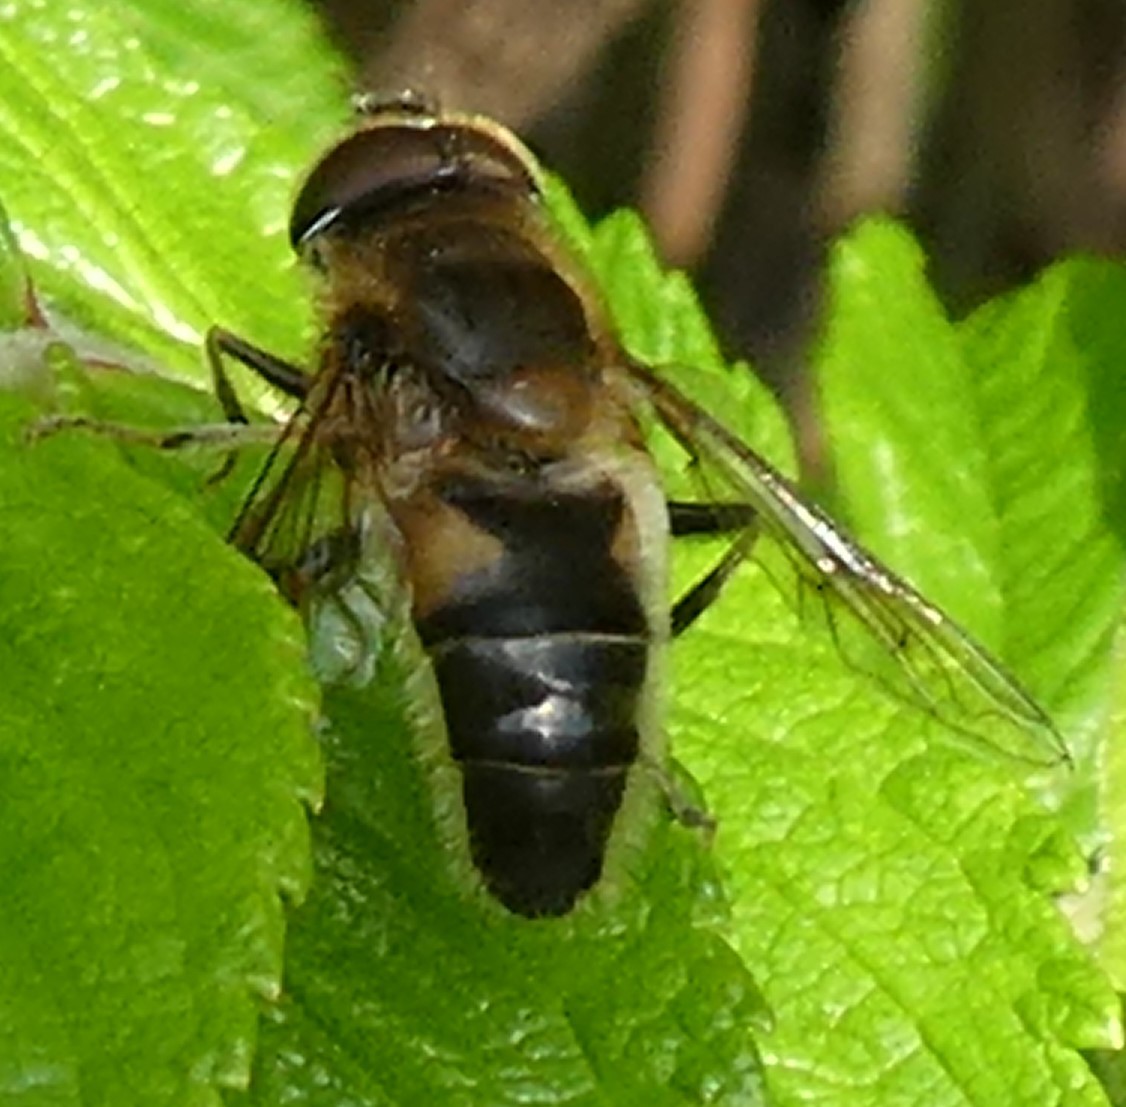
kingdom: Animalia
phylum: Arthropoda
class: Insecta
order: Diptera
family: Syrphidae
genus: Eristalis
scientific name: Eristalis pertinax
